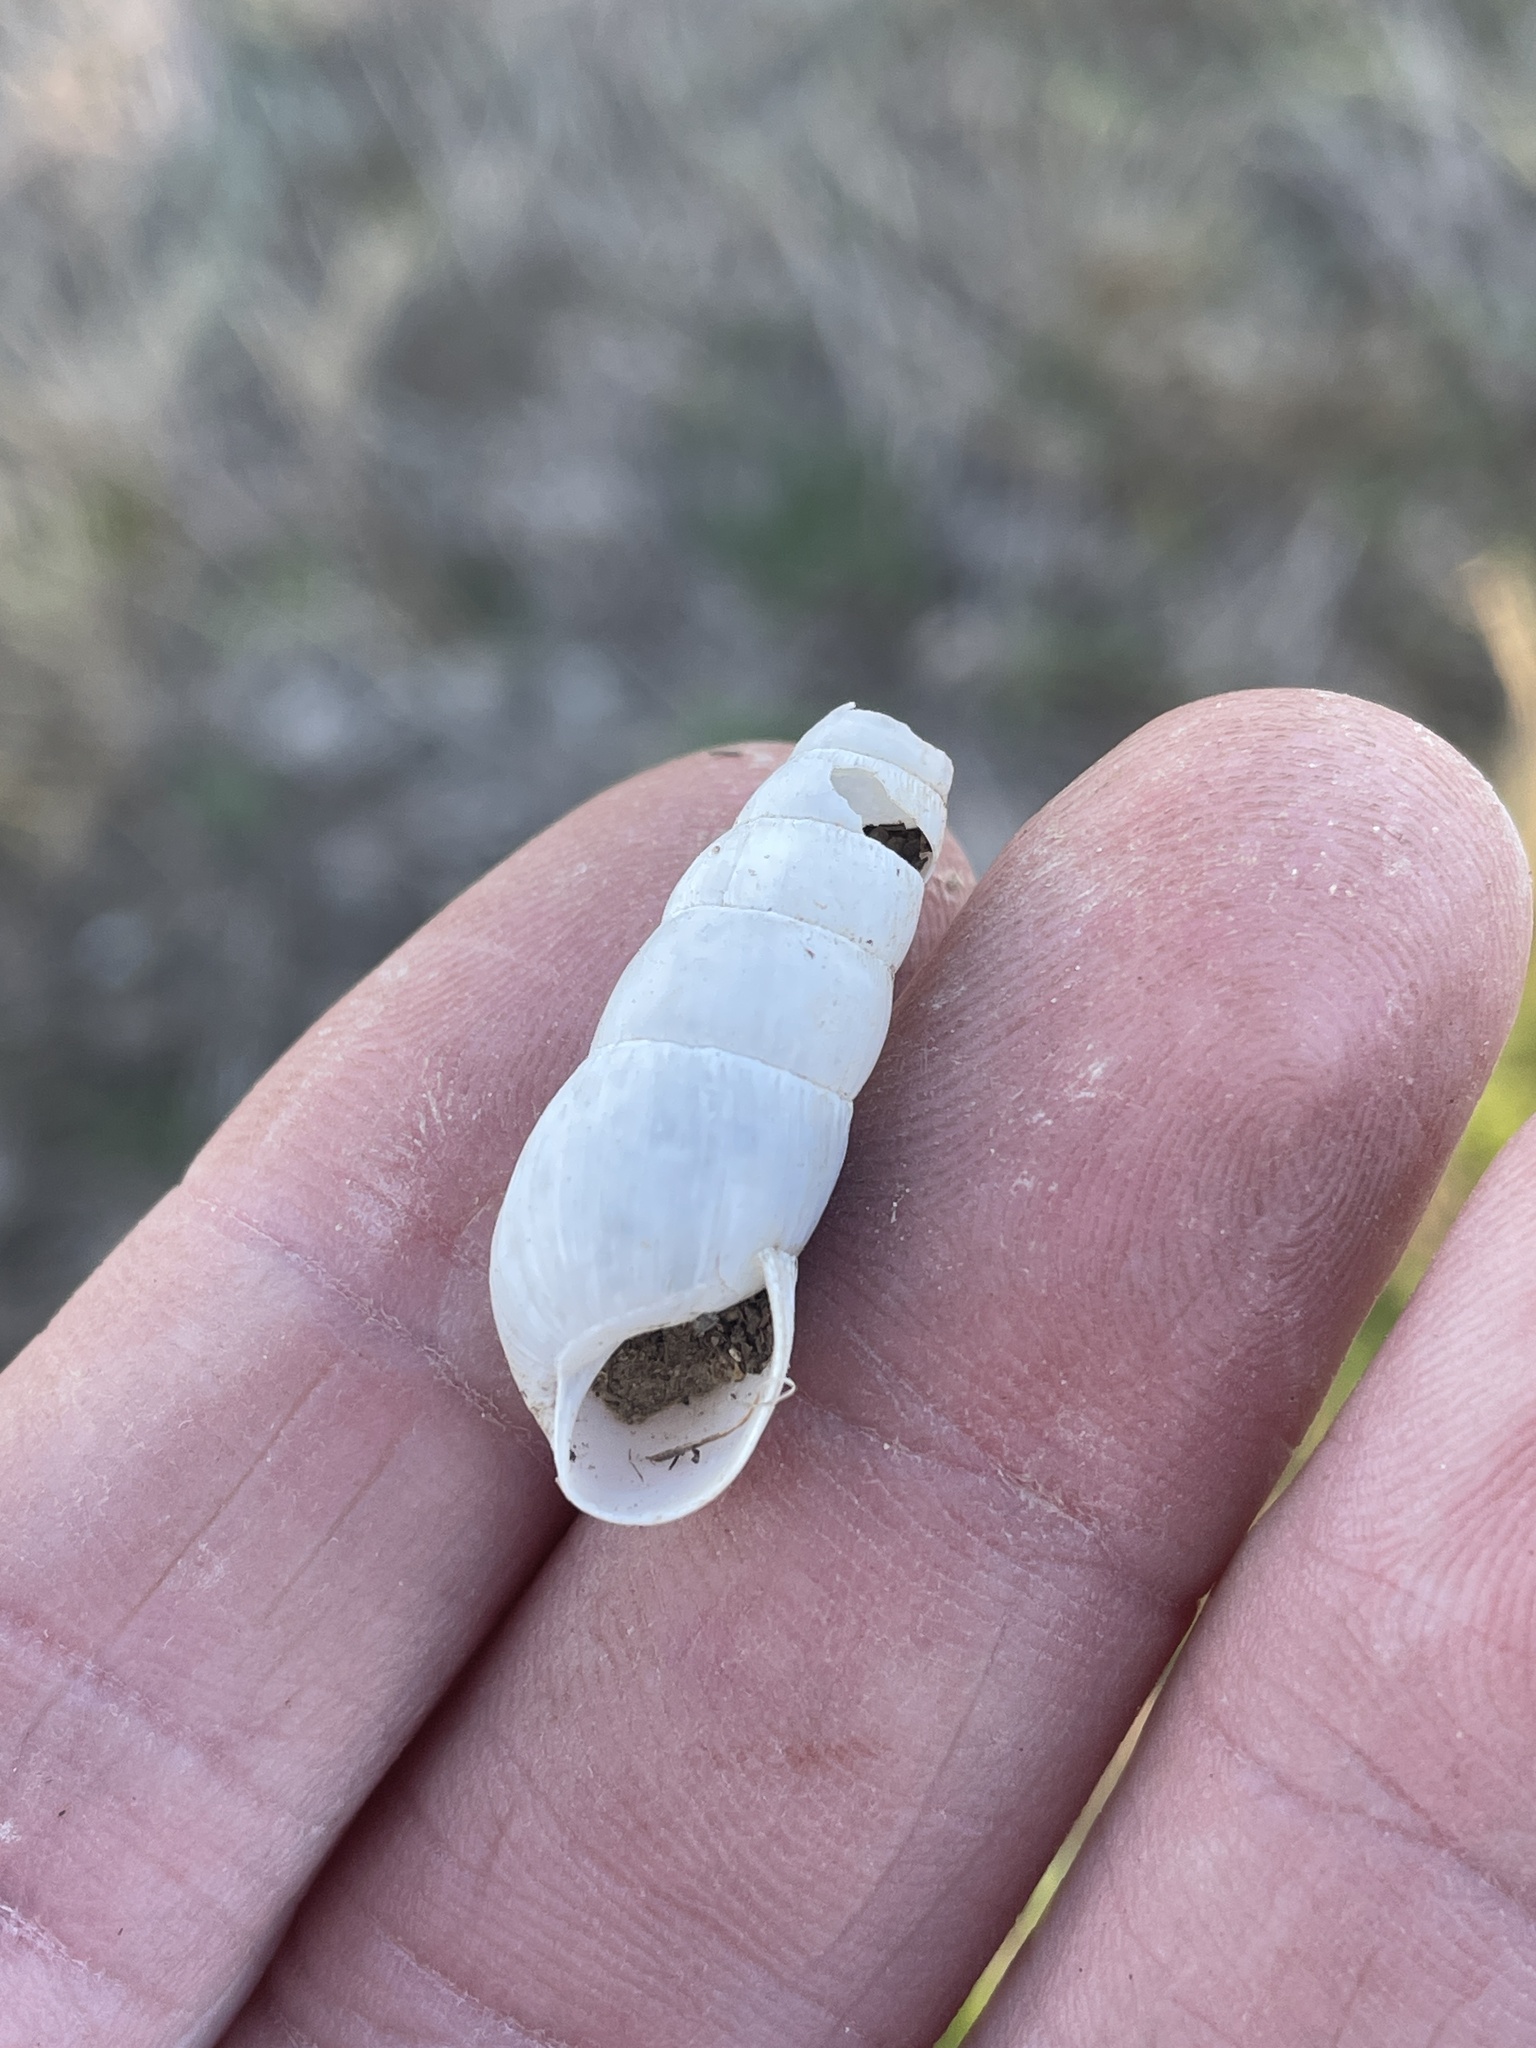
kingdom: Animalia
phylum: Mollusca
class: Gastropoda
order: Stylommatophora
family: Achatinidae
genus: Rumina
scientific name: Rumina decollata
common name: Decollate snail
